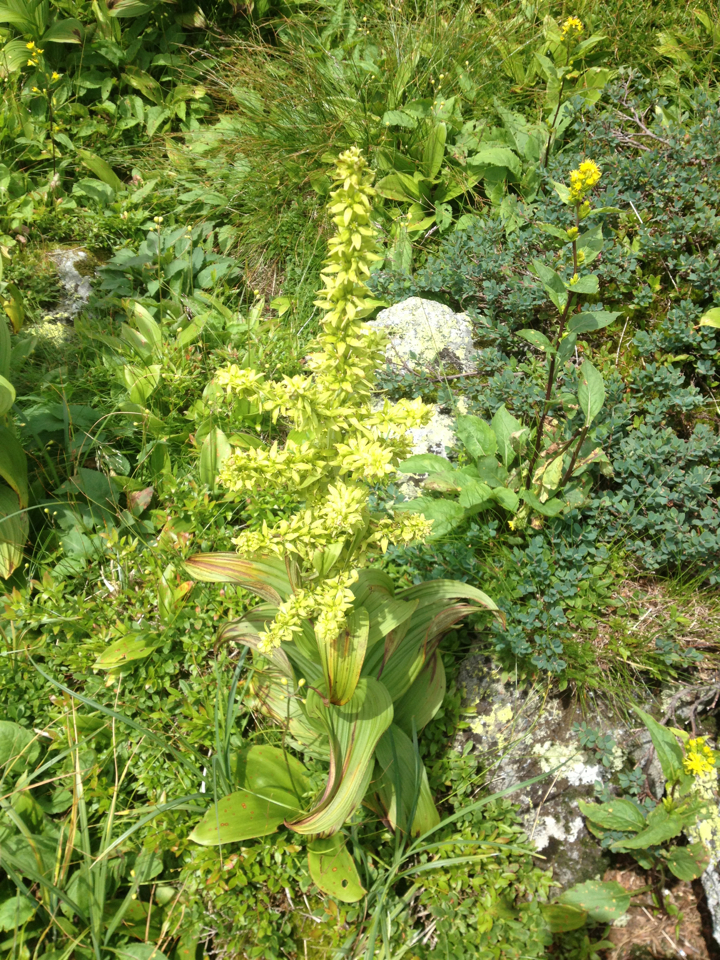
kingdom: Plantae
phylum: Tracheophyta
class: Liliopsida
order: Liliales
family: Melanthiaceae
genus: Veratrum
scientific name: Veratrum viride
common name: American false hellebore
